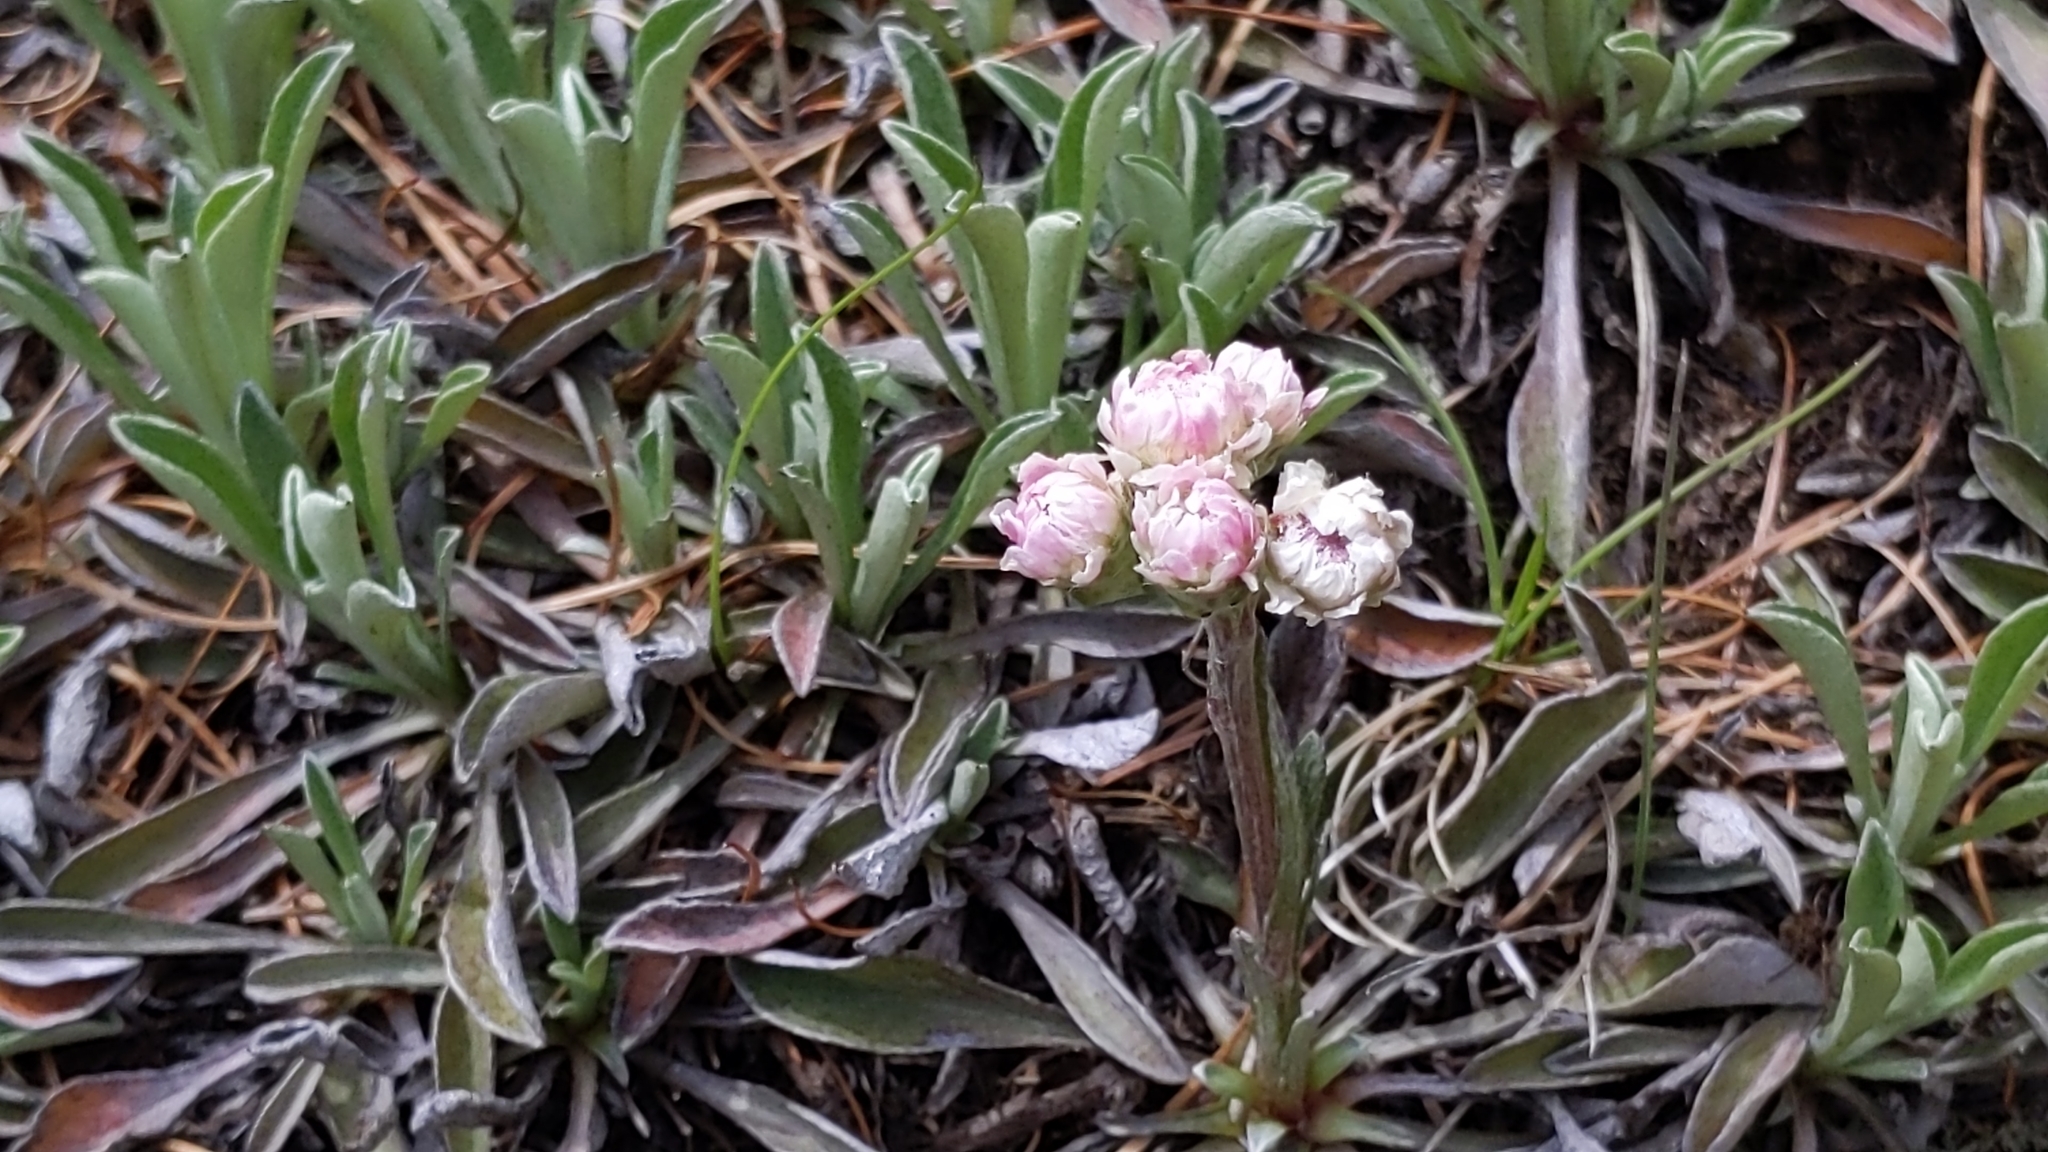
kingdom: Plantae
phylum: Tracheophyta
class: Magnoliopsida
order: Asterales
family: Asteraceae
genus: Antennaria
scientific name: Antennaria dioica
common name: Mountain everlasting
